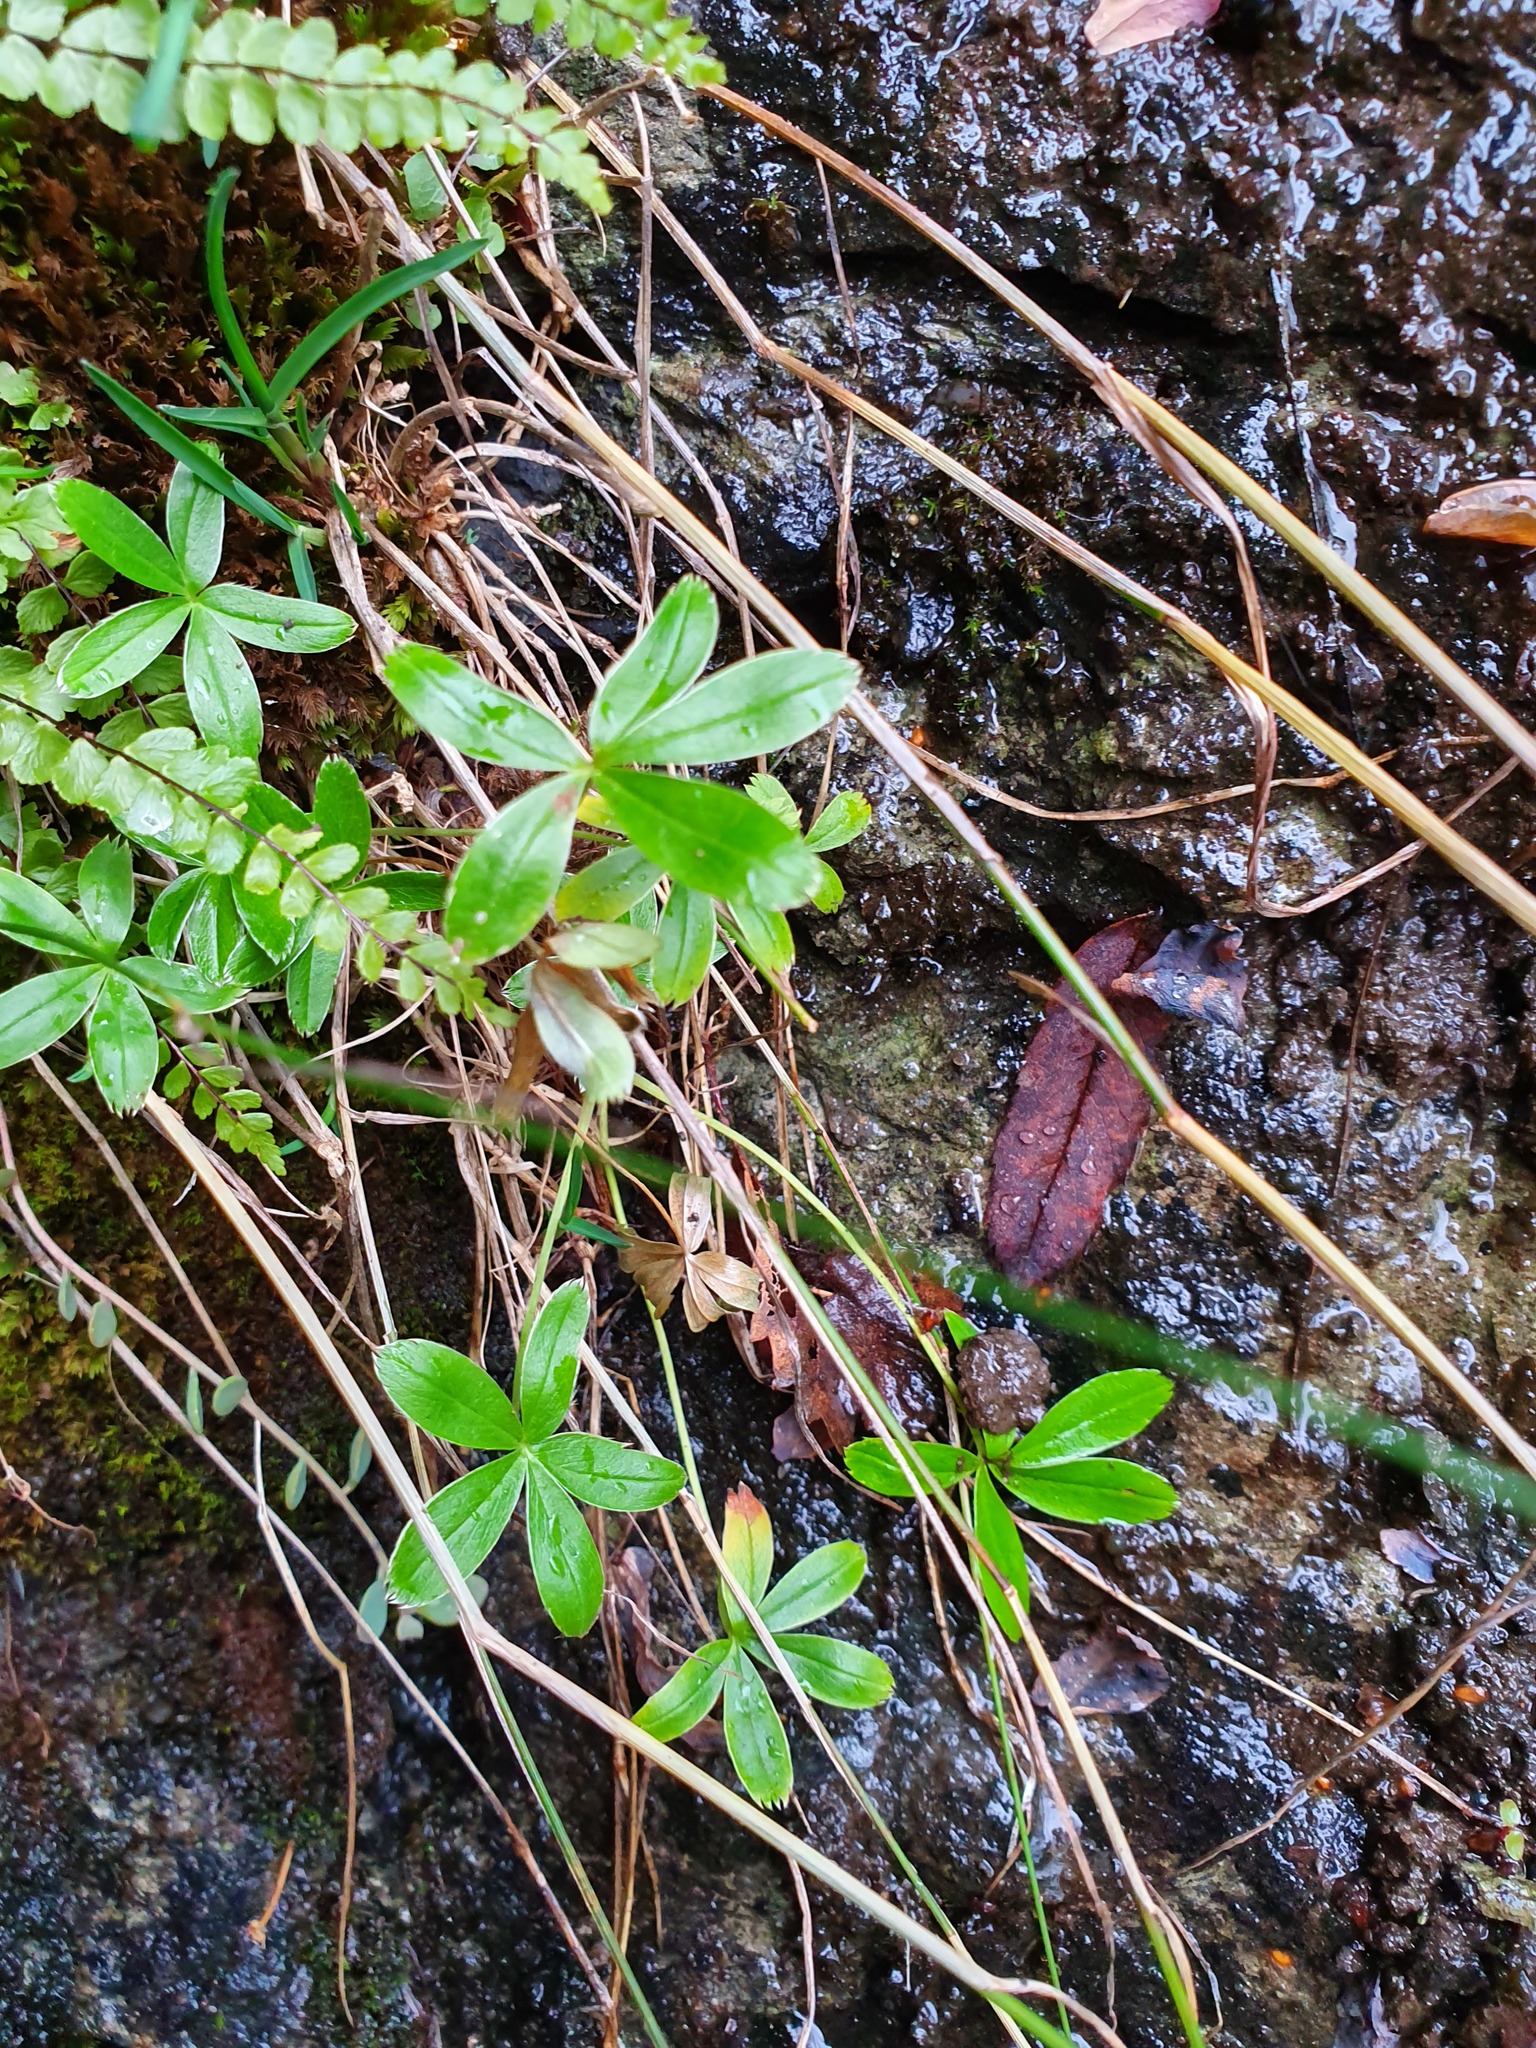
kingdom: Plantae
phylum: Tracheophyta
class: Magnoliopsida
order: Rosales
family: Rosaceae
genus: Alchemilla
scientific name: Alchemilla alpina
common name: Alpine lady's-mantle
